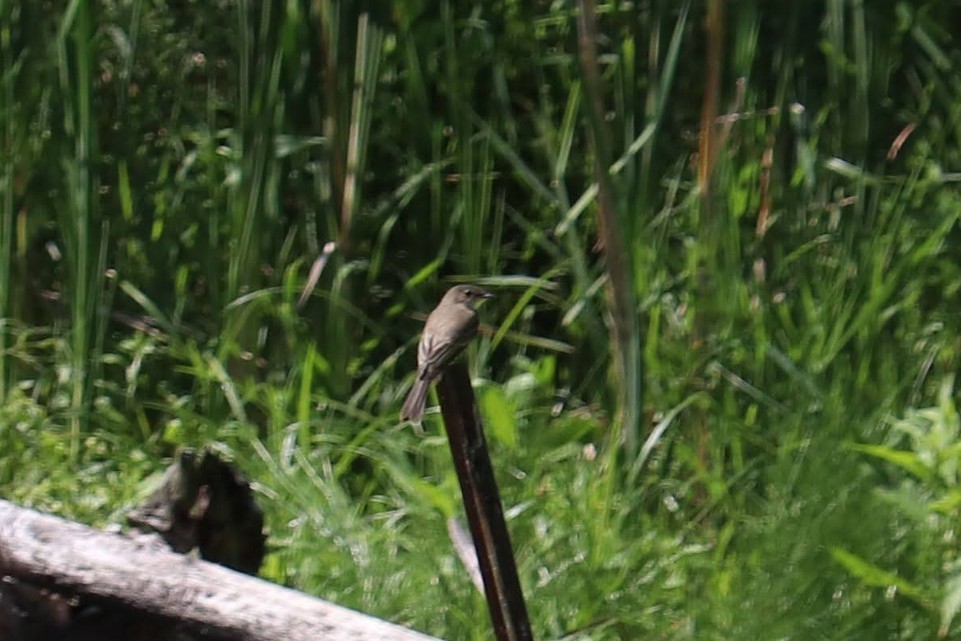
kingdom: Animalia
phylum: Chordata
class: Aves
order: Passeriformes
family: Tyrannidae
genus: Sayornis
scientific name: Sayornis phoebe
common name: Eastern phoebe
